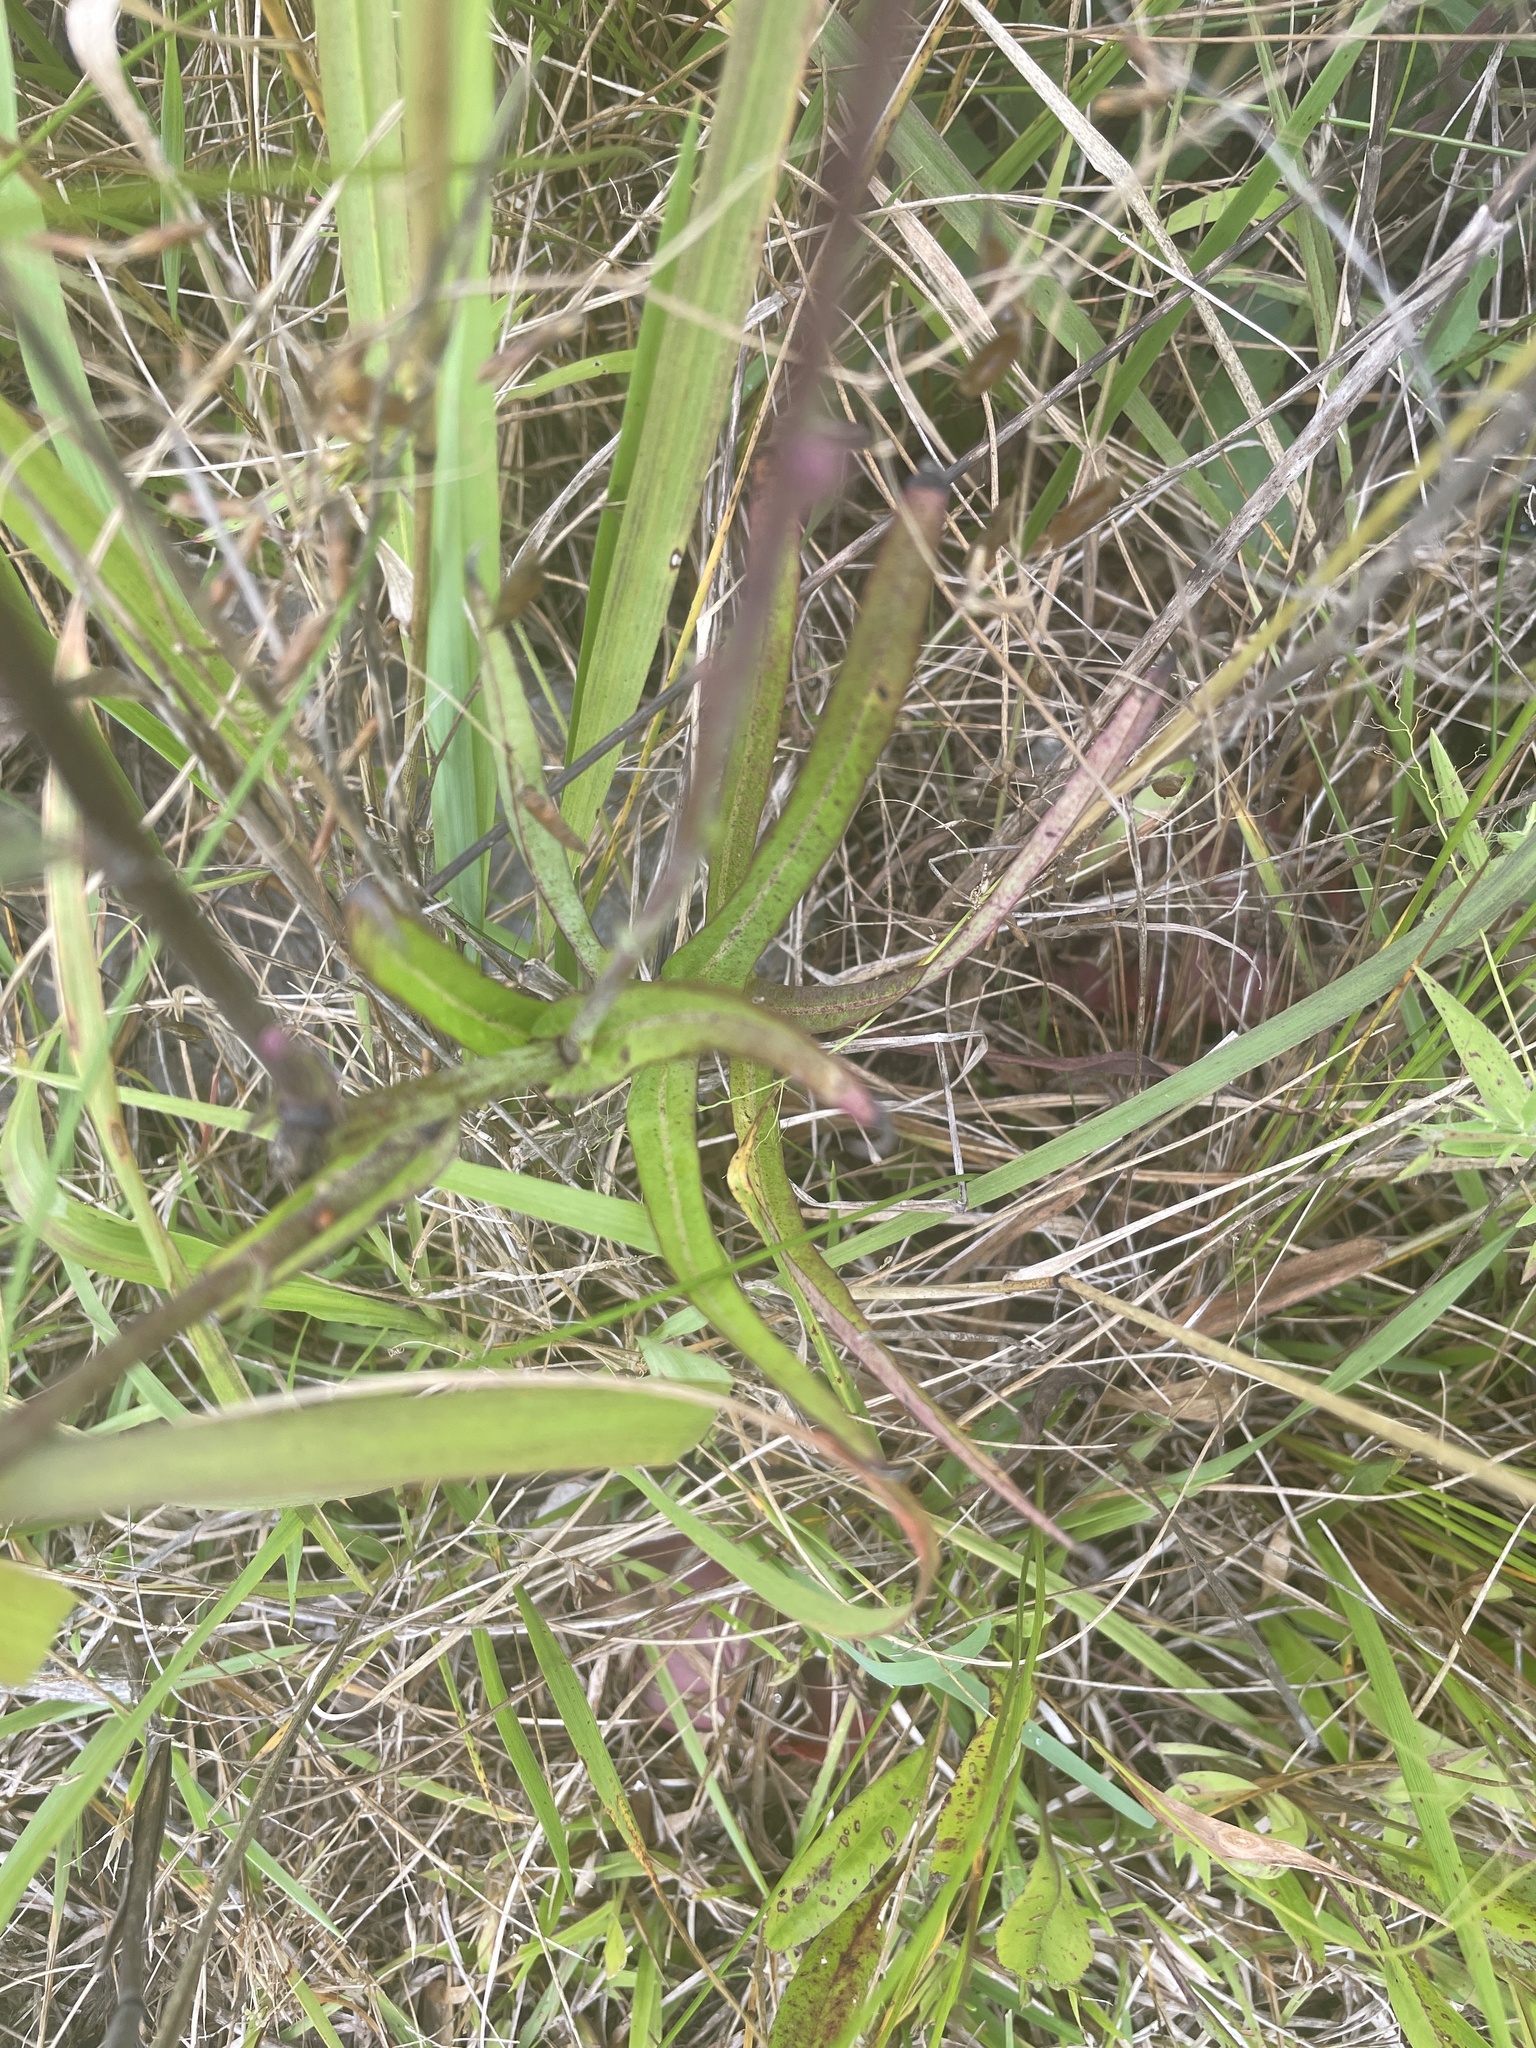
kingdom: Plantae
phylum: Tracheophyta
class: Liliopsida
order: Commelinales
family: Commelinaceae
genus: Commelina
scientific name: Commelina erecta
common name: Blousel blommetjie
